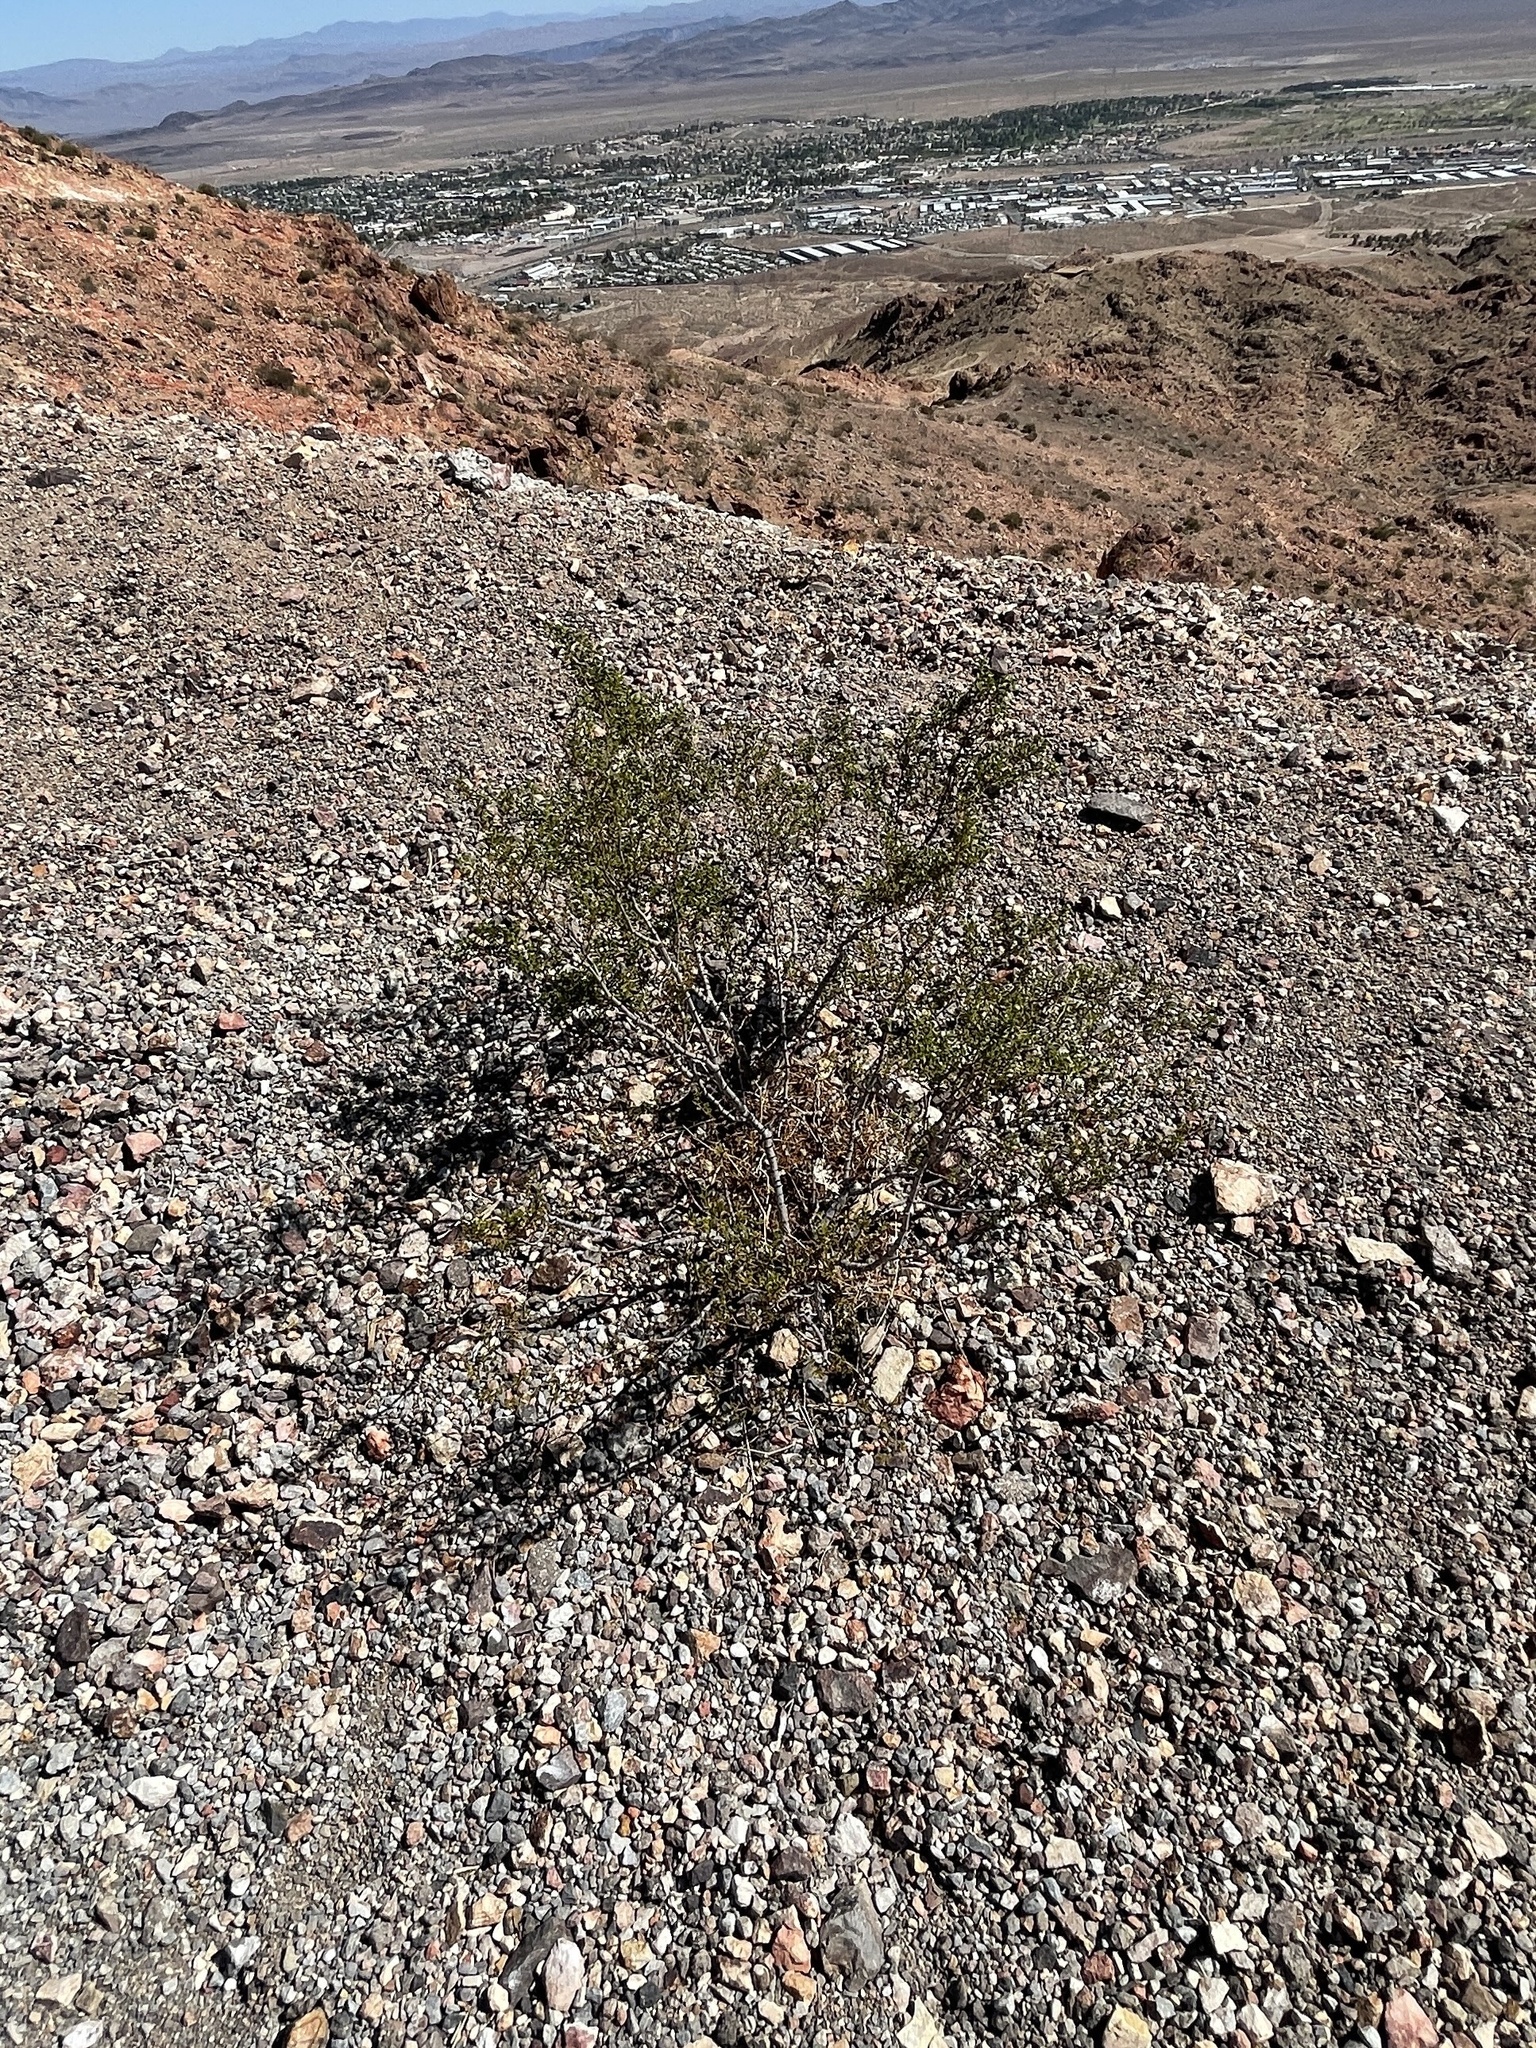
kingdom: Plantae
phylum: Tracheophyta
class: Magnoliopsida
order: Zygophyllales
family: Zygophyllaceae
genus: Larrea
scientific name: Larrea tridentata
